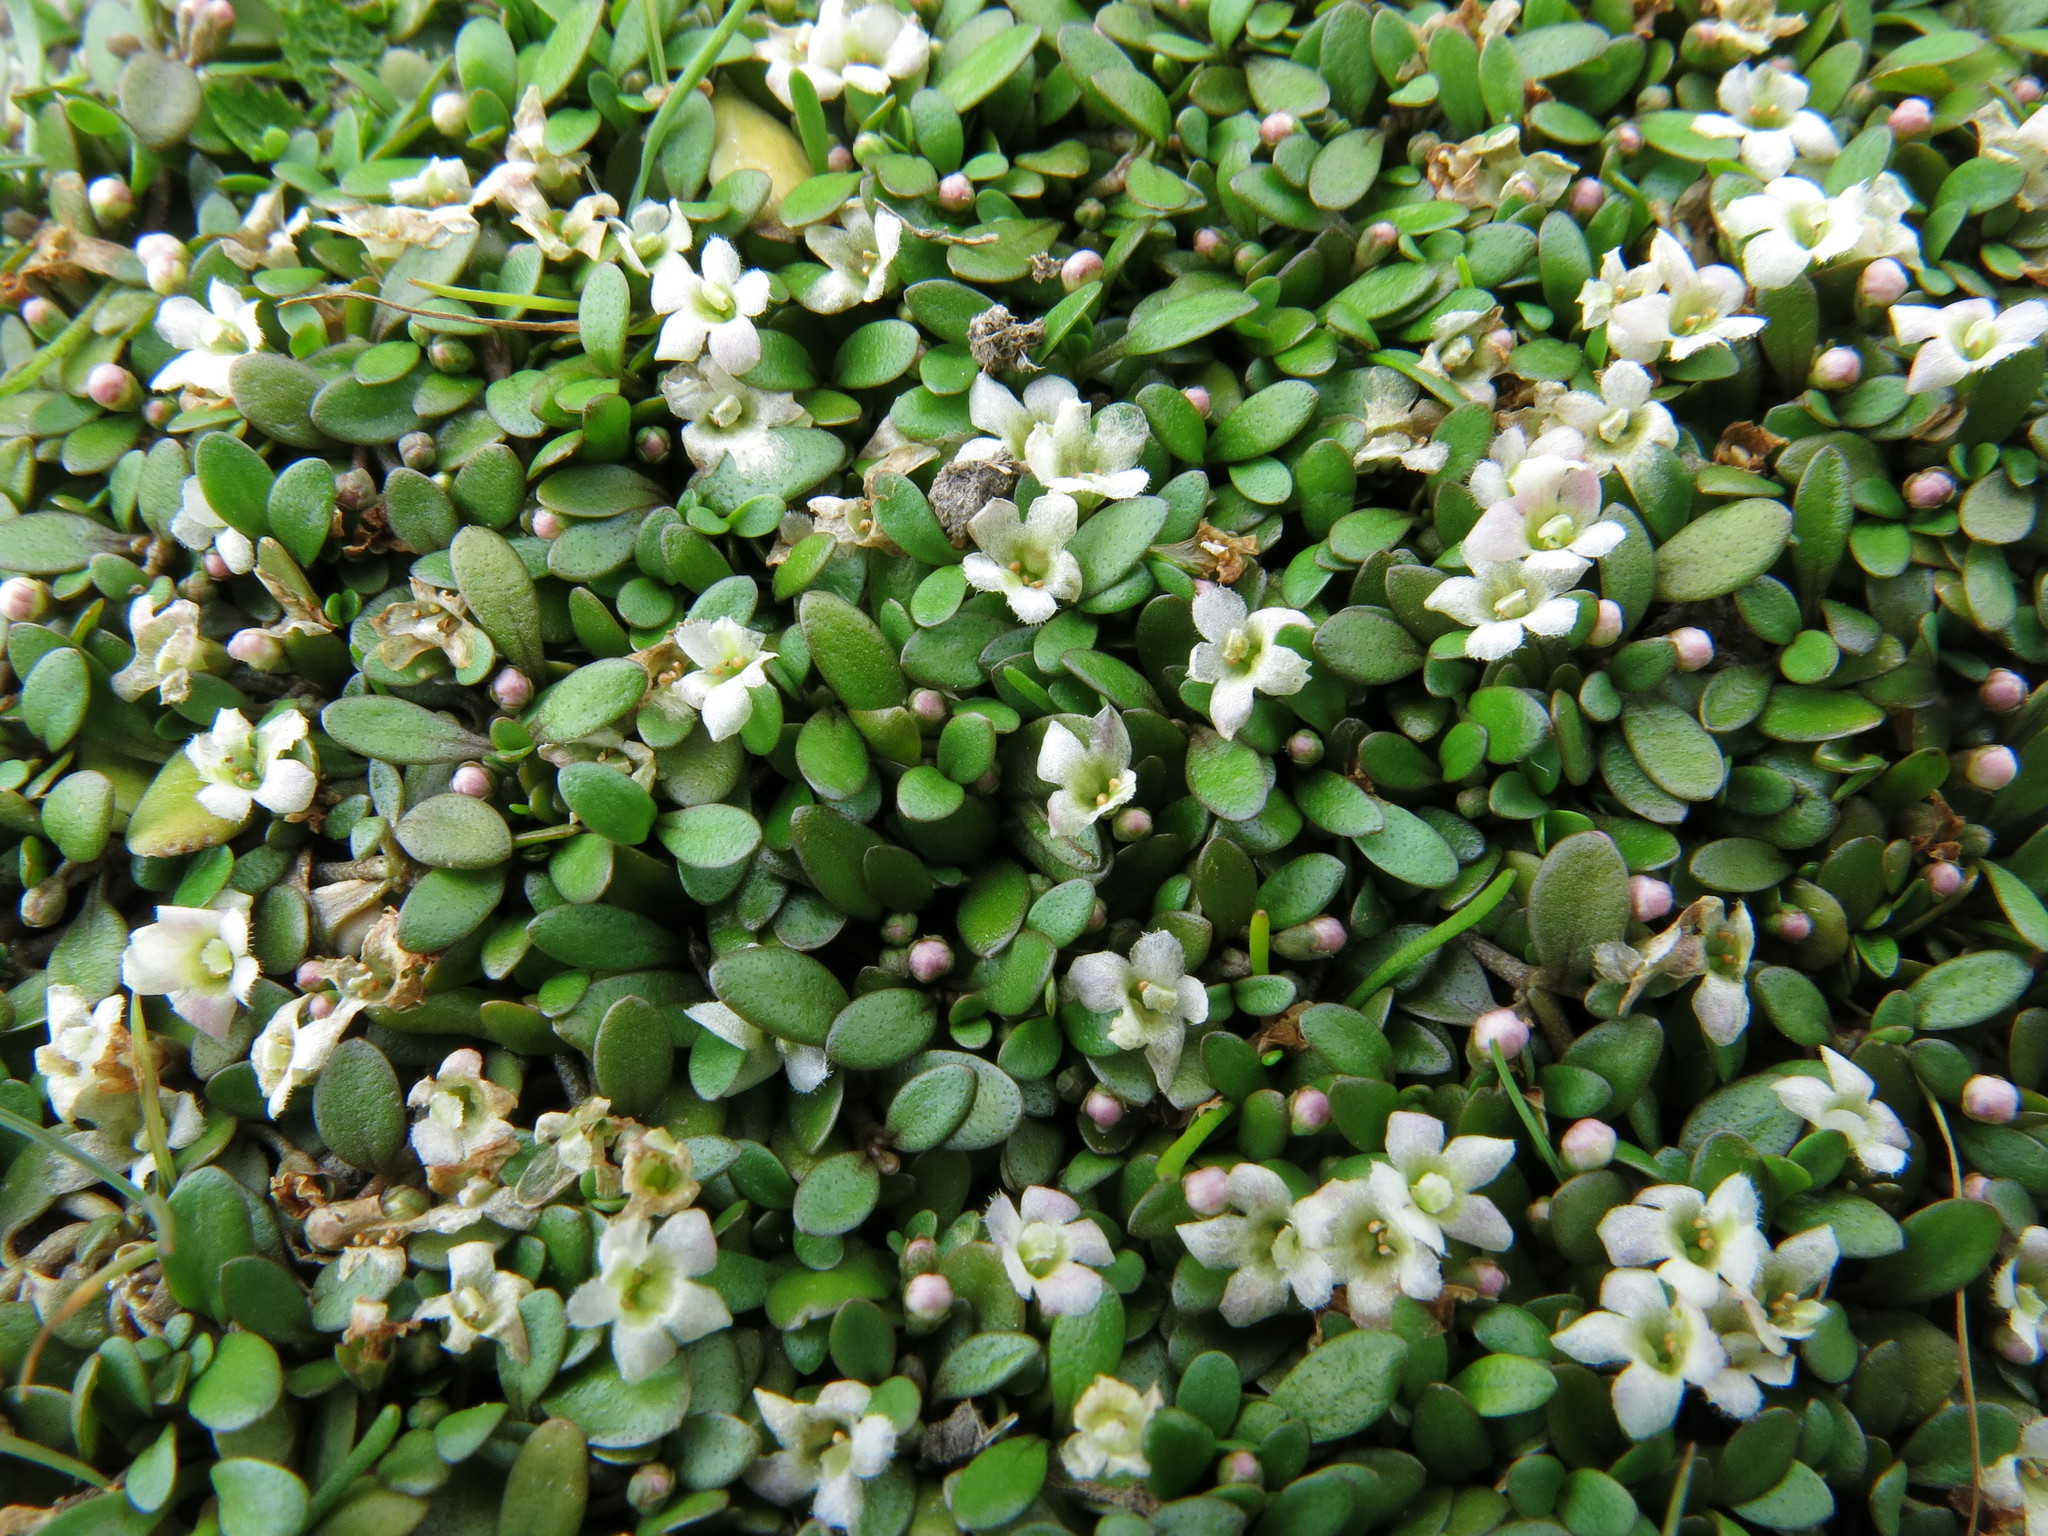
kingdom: Plantae
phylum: Tracheophyta
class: Magnoliopsida
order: Lamiales
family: Phrymaceae
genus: Glossostigma
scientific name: Glossostigma elatinoides
